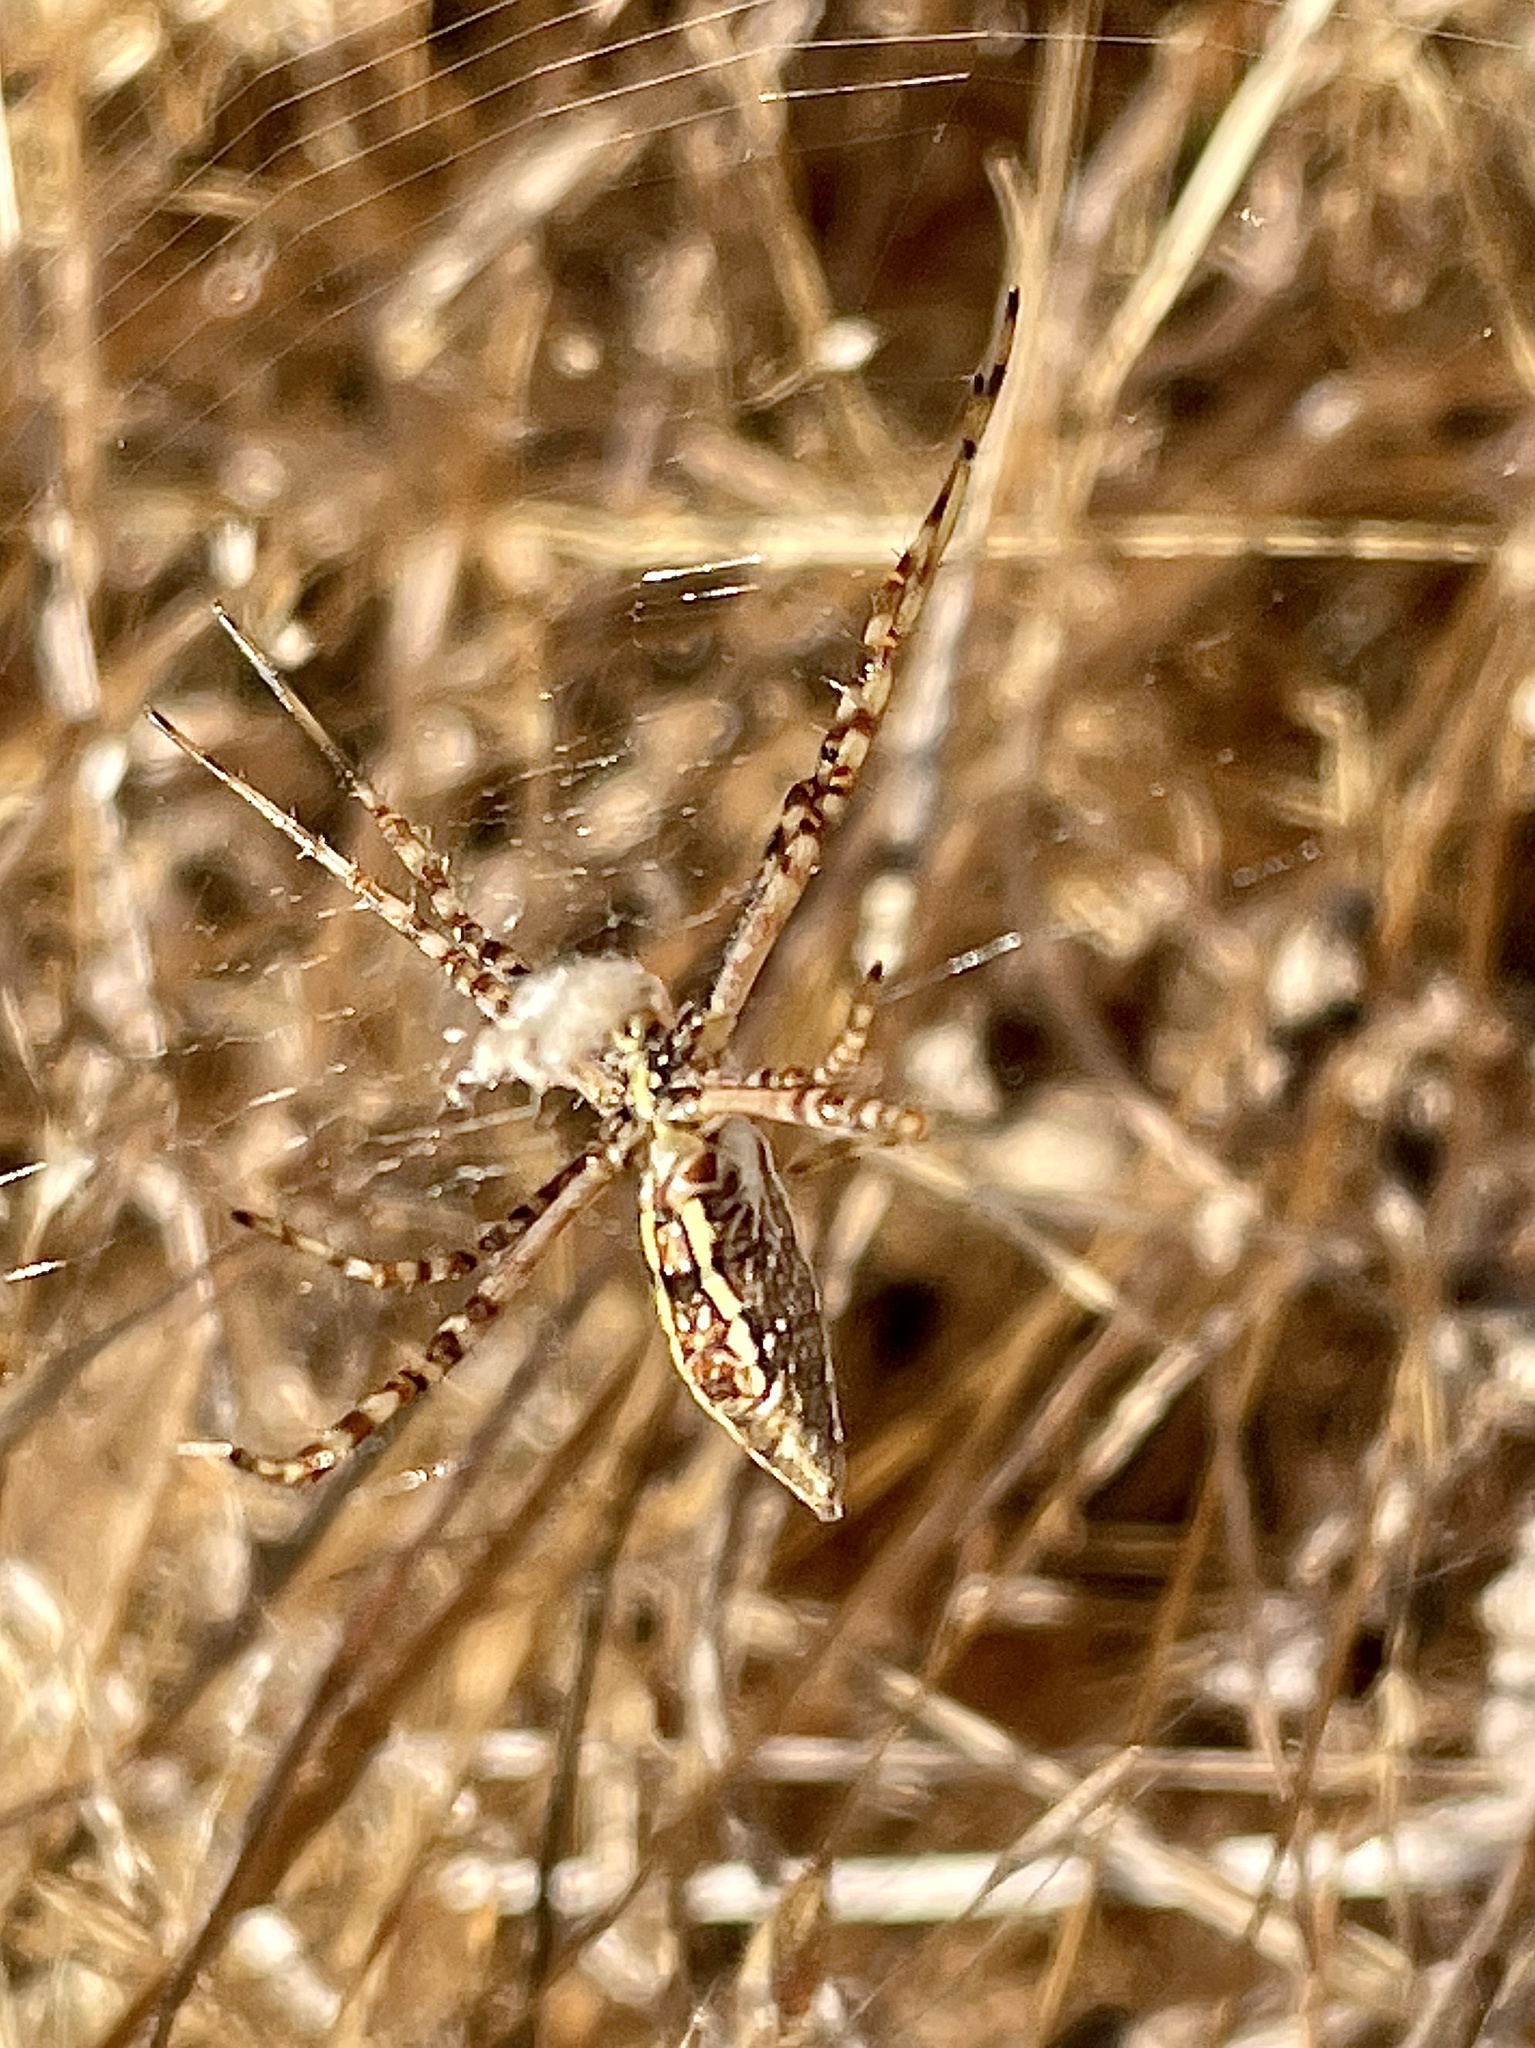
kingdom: Animalia
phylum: Arthropoda
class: Arachnida
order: Araneae
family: Araneidae
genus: Argiope
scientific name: Argiope trifasciata
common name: Banded garden spider
